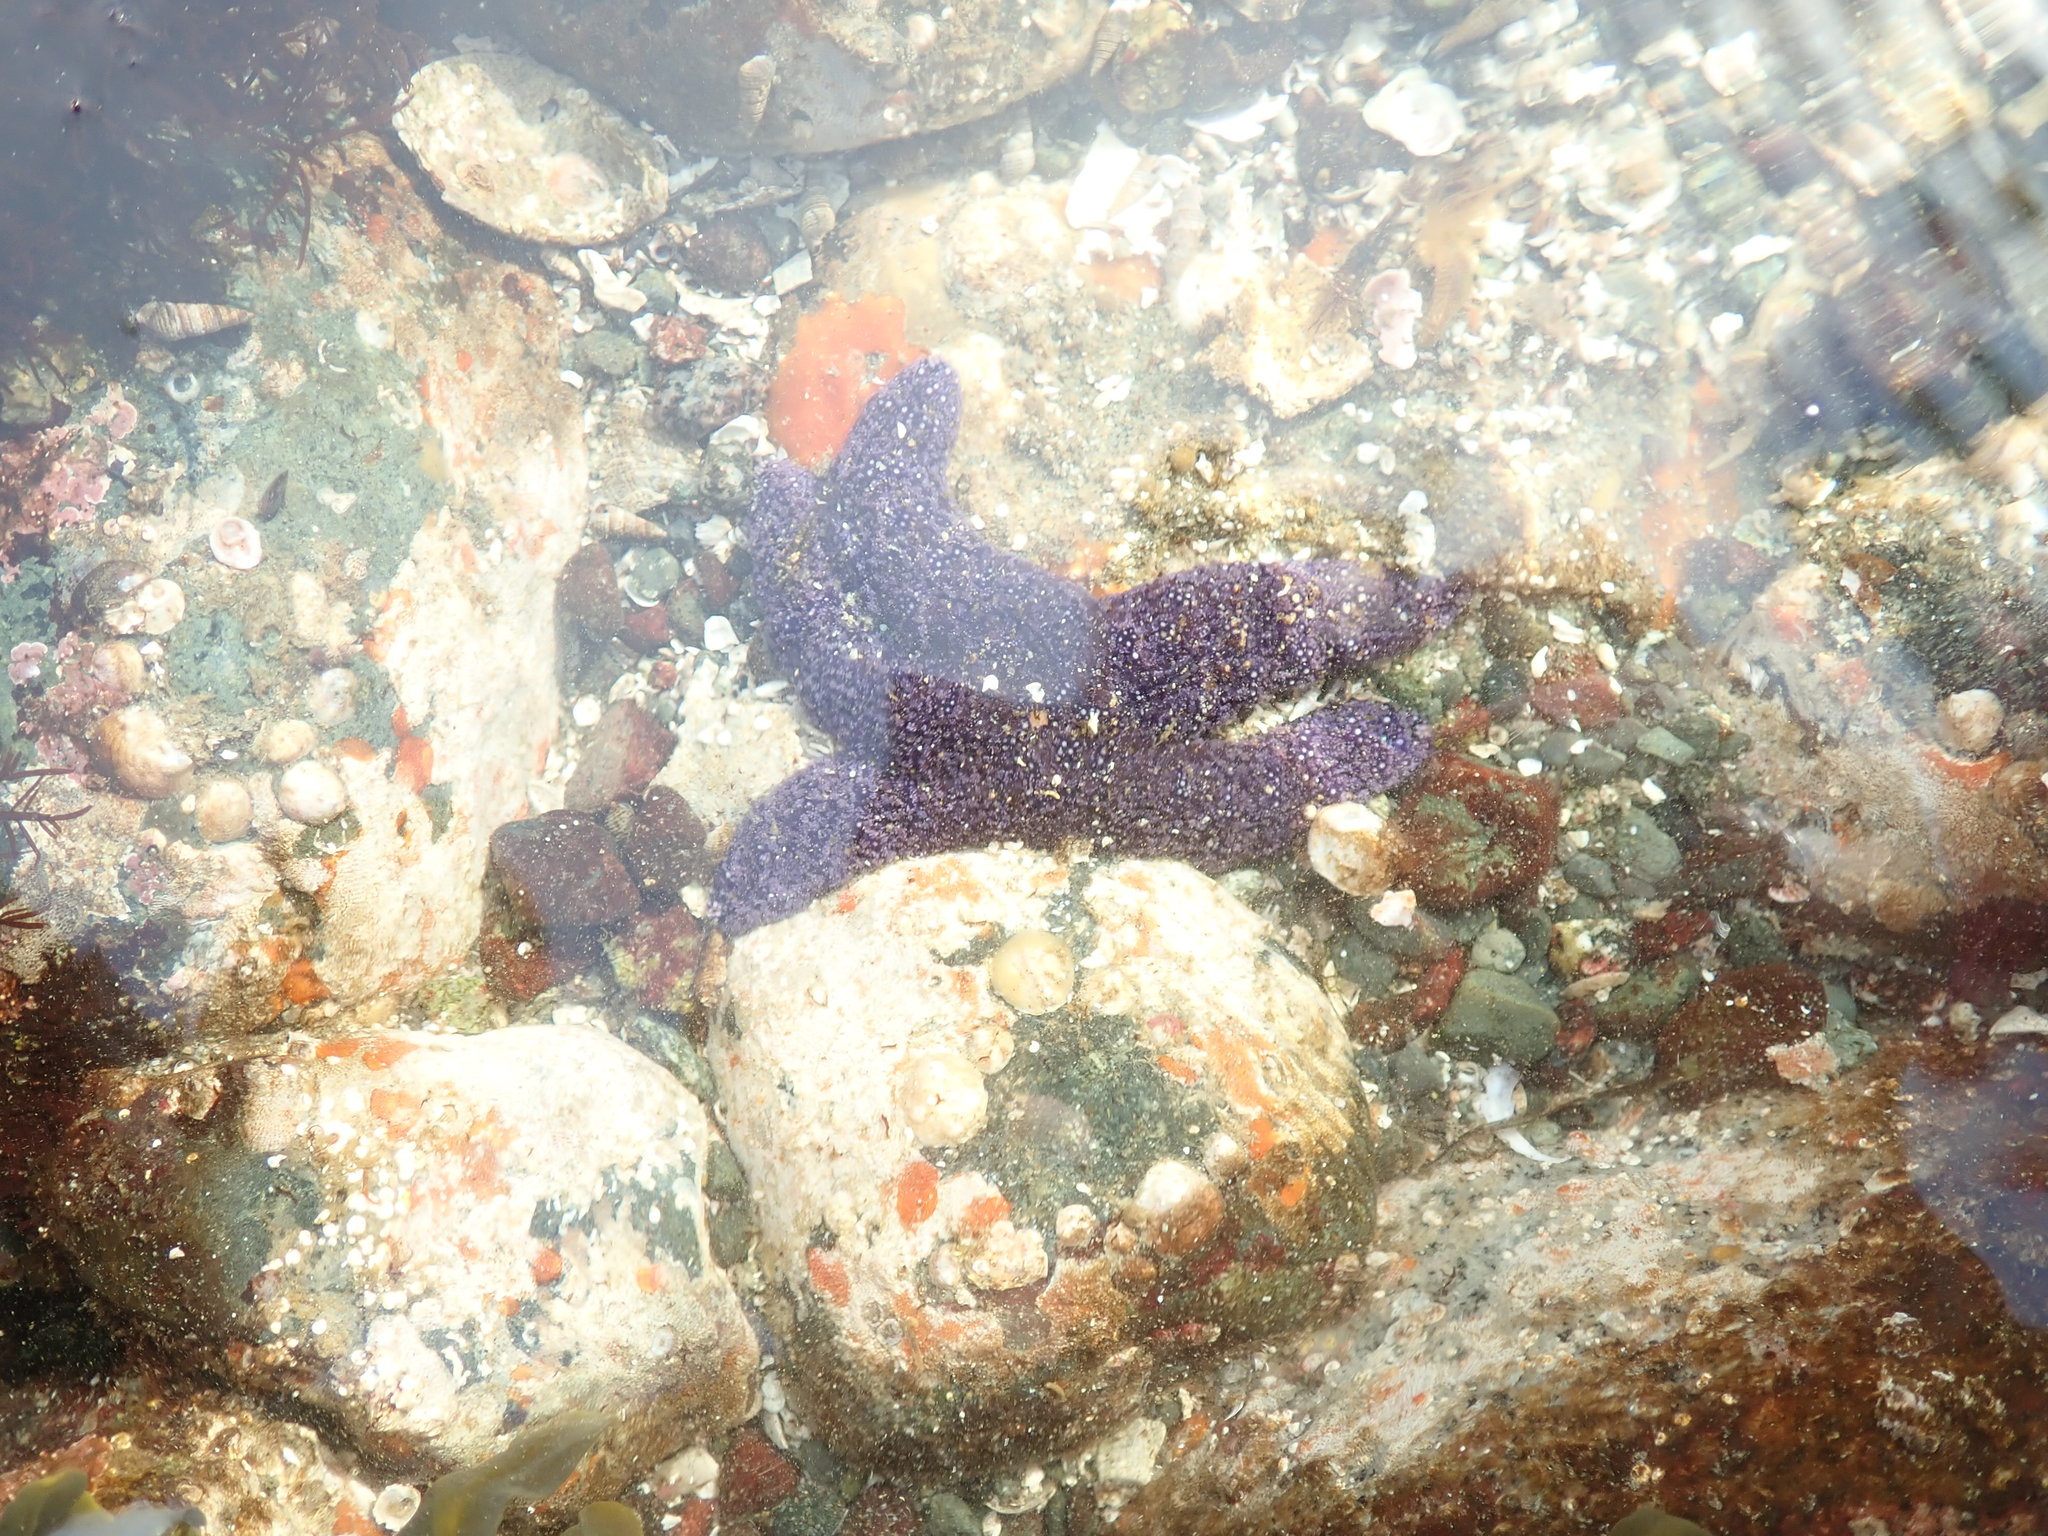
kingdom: Animalia
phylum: Echinodermata
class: Asteroidea
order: Forcipulatida
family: Asteriidae
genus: Pisaster
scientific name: Pisaster ochraceus
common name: Ochre stars
